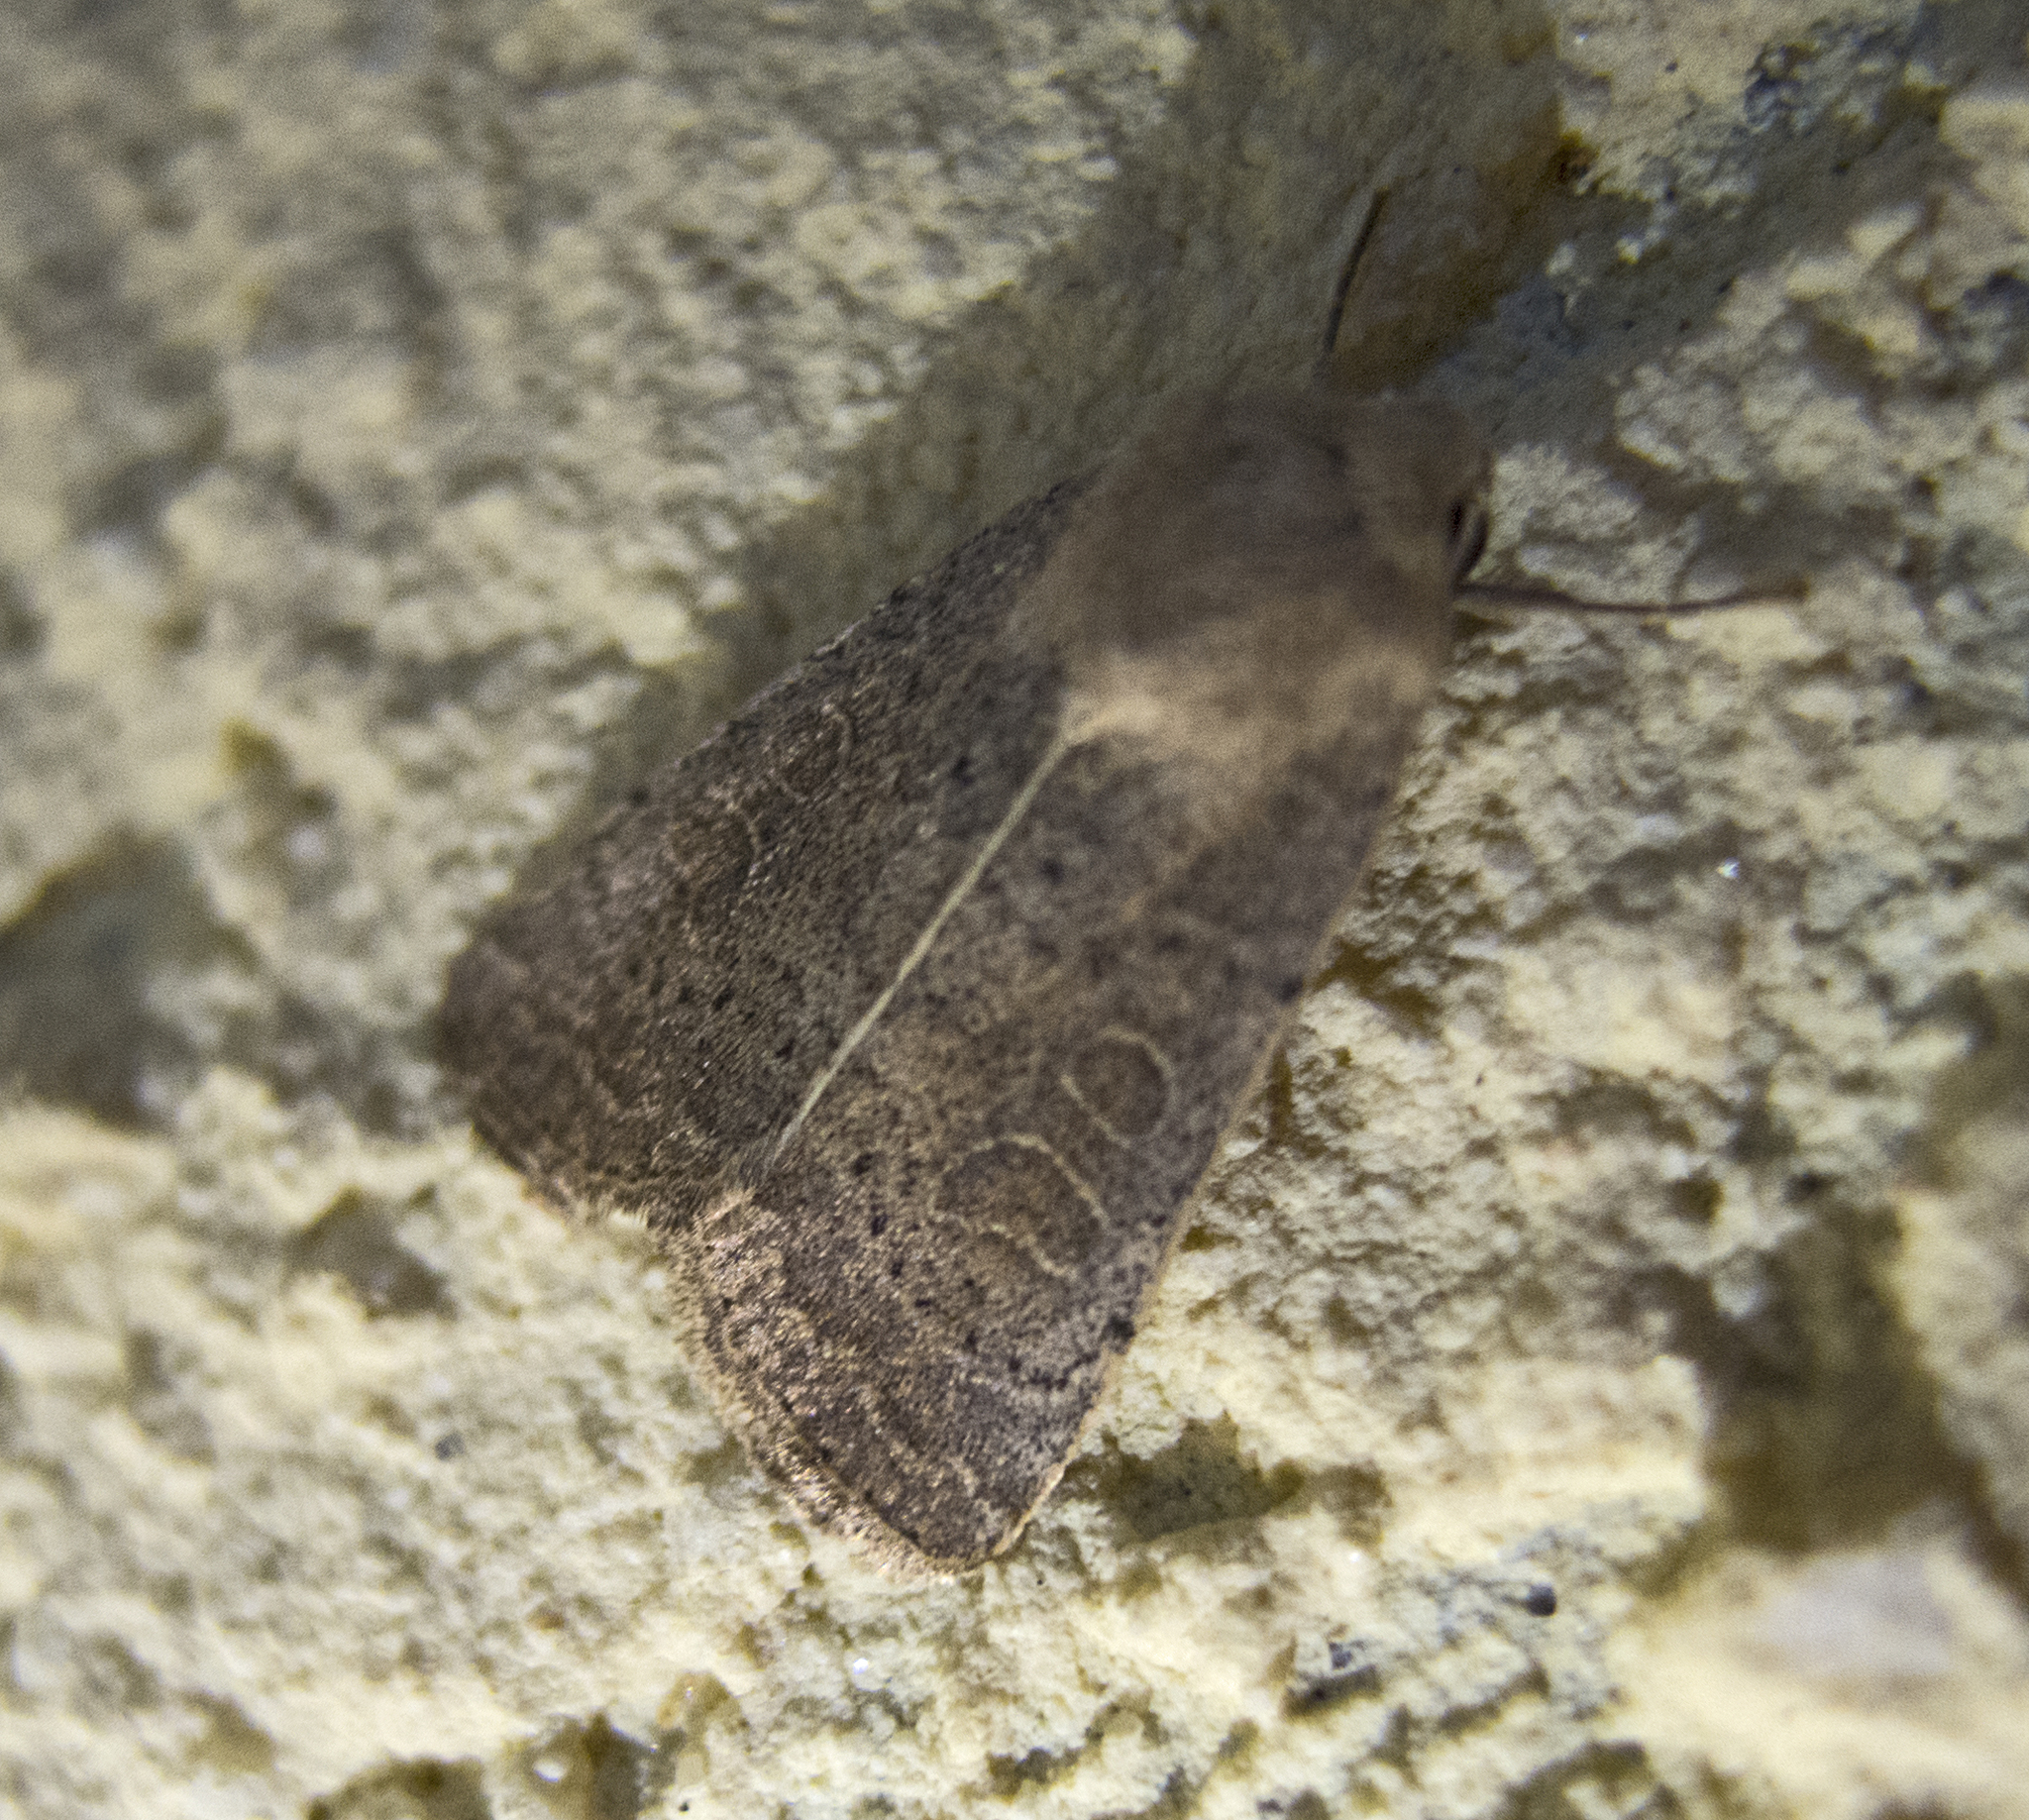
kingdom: Animalia
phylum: Arthropoda
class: Insecta
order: Lepidoptera
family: Noctuidae
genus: Hoplodrina
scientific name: Hoplodrina ambigua
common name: Vine's rustic
